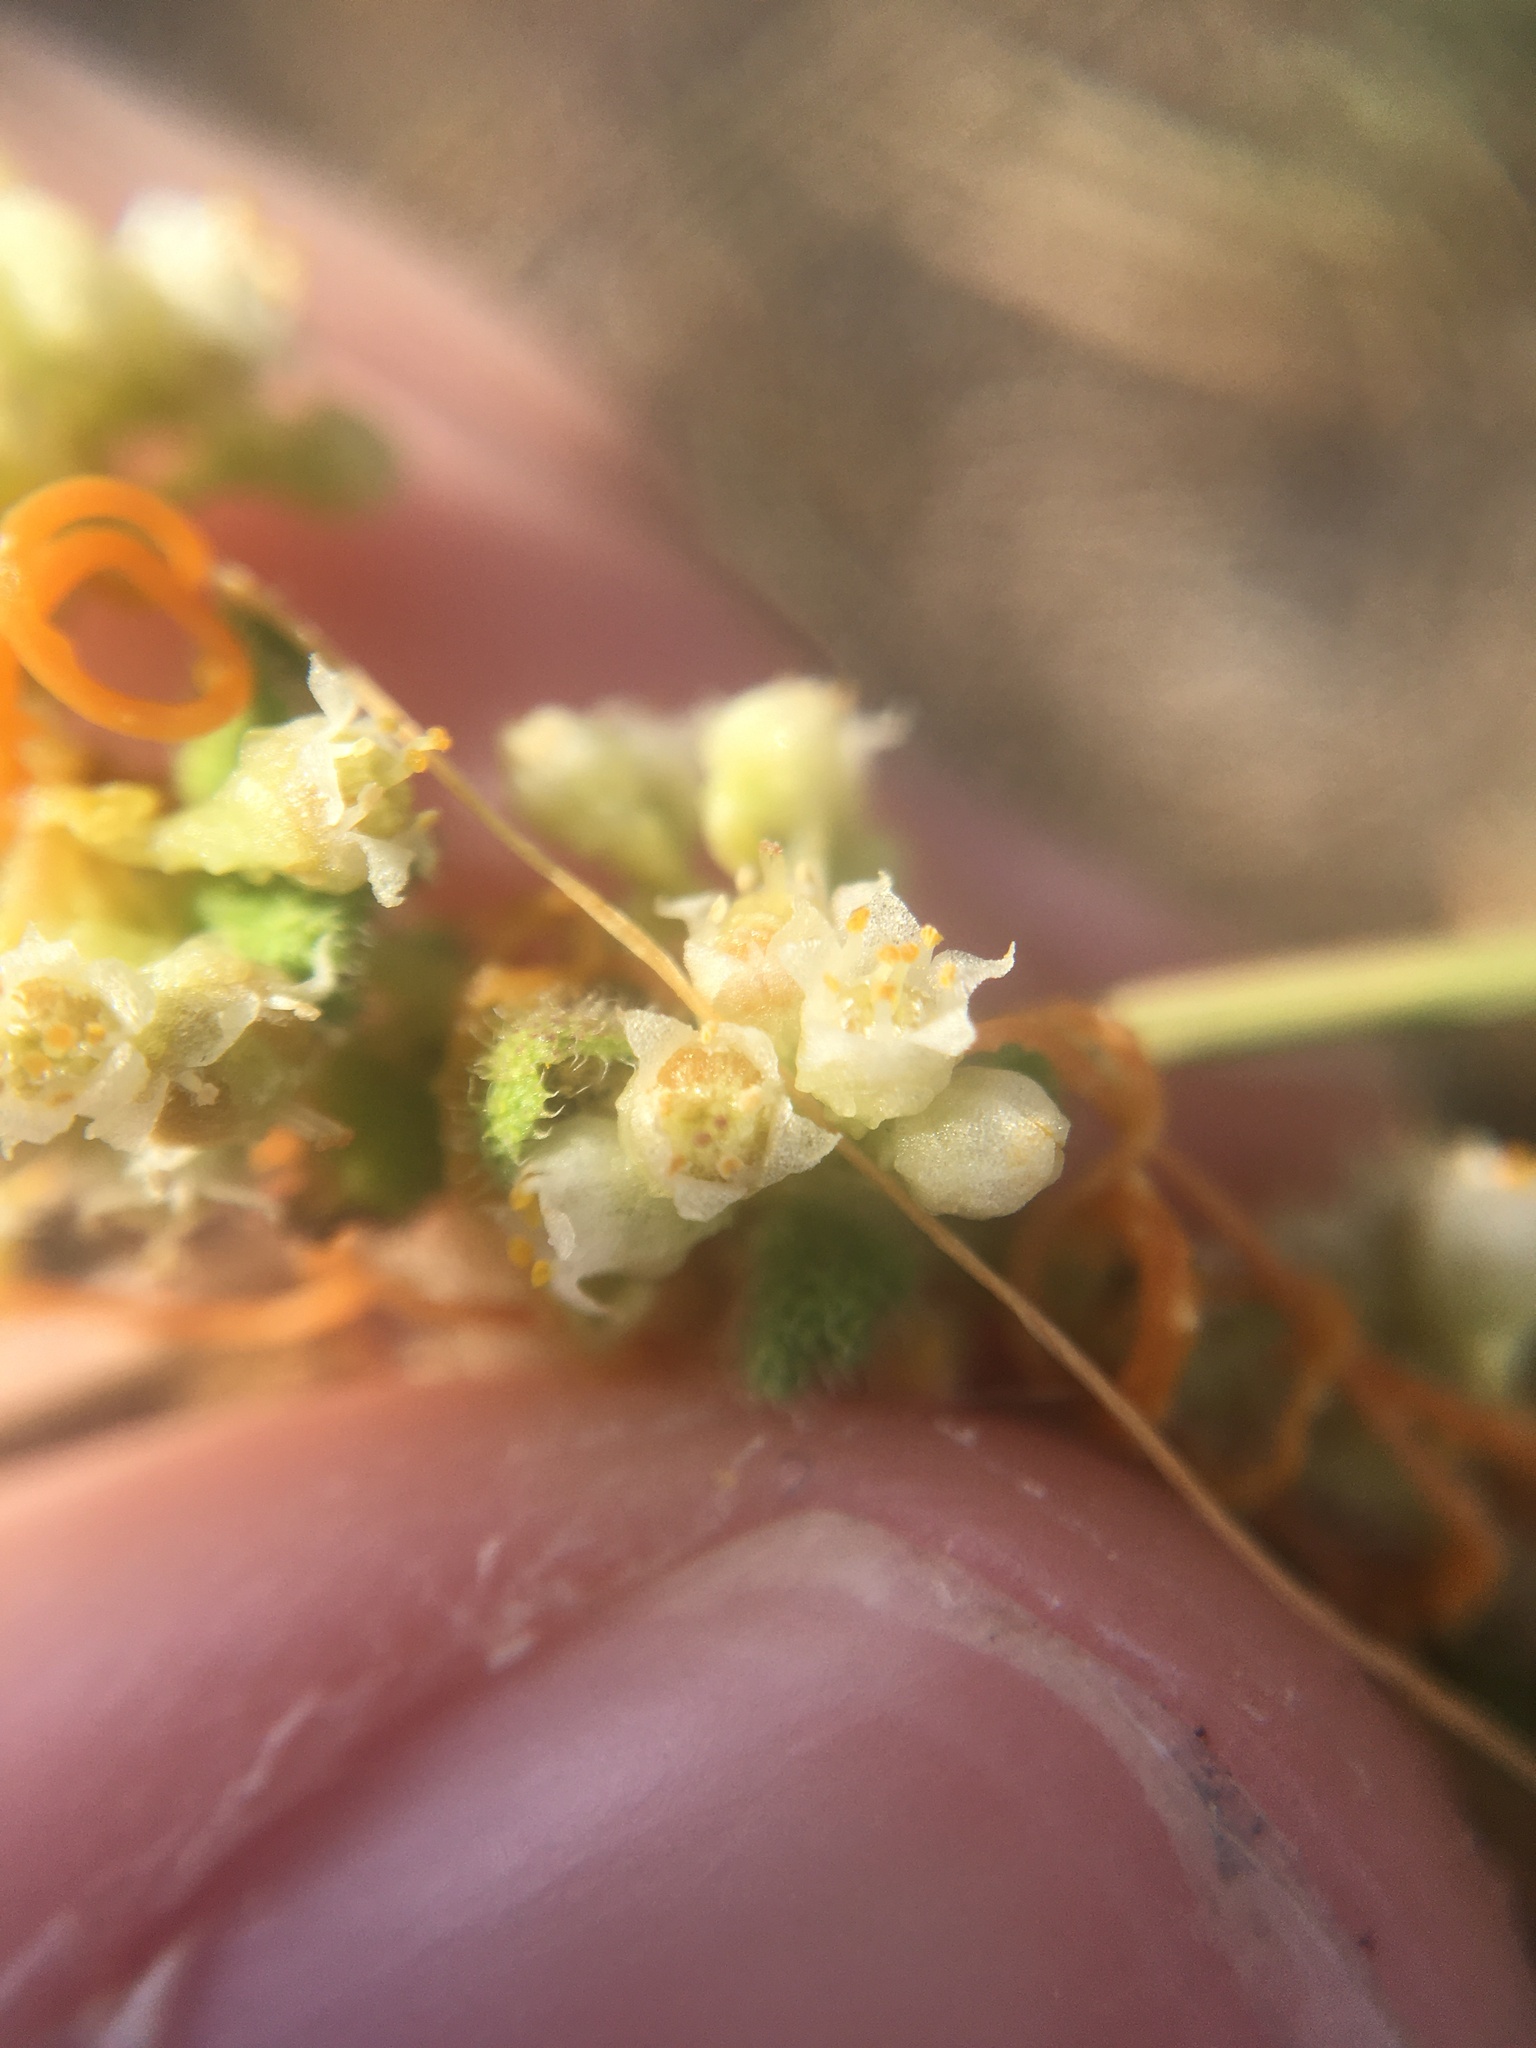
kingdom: Plantae
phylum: Tracheophyta
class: Magnoliopsida
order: Solanales
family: Convolvulaceae
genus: Cuscuta
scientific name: Cuscuta pentagona
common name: Fiveangled dodder
